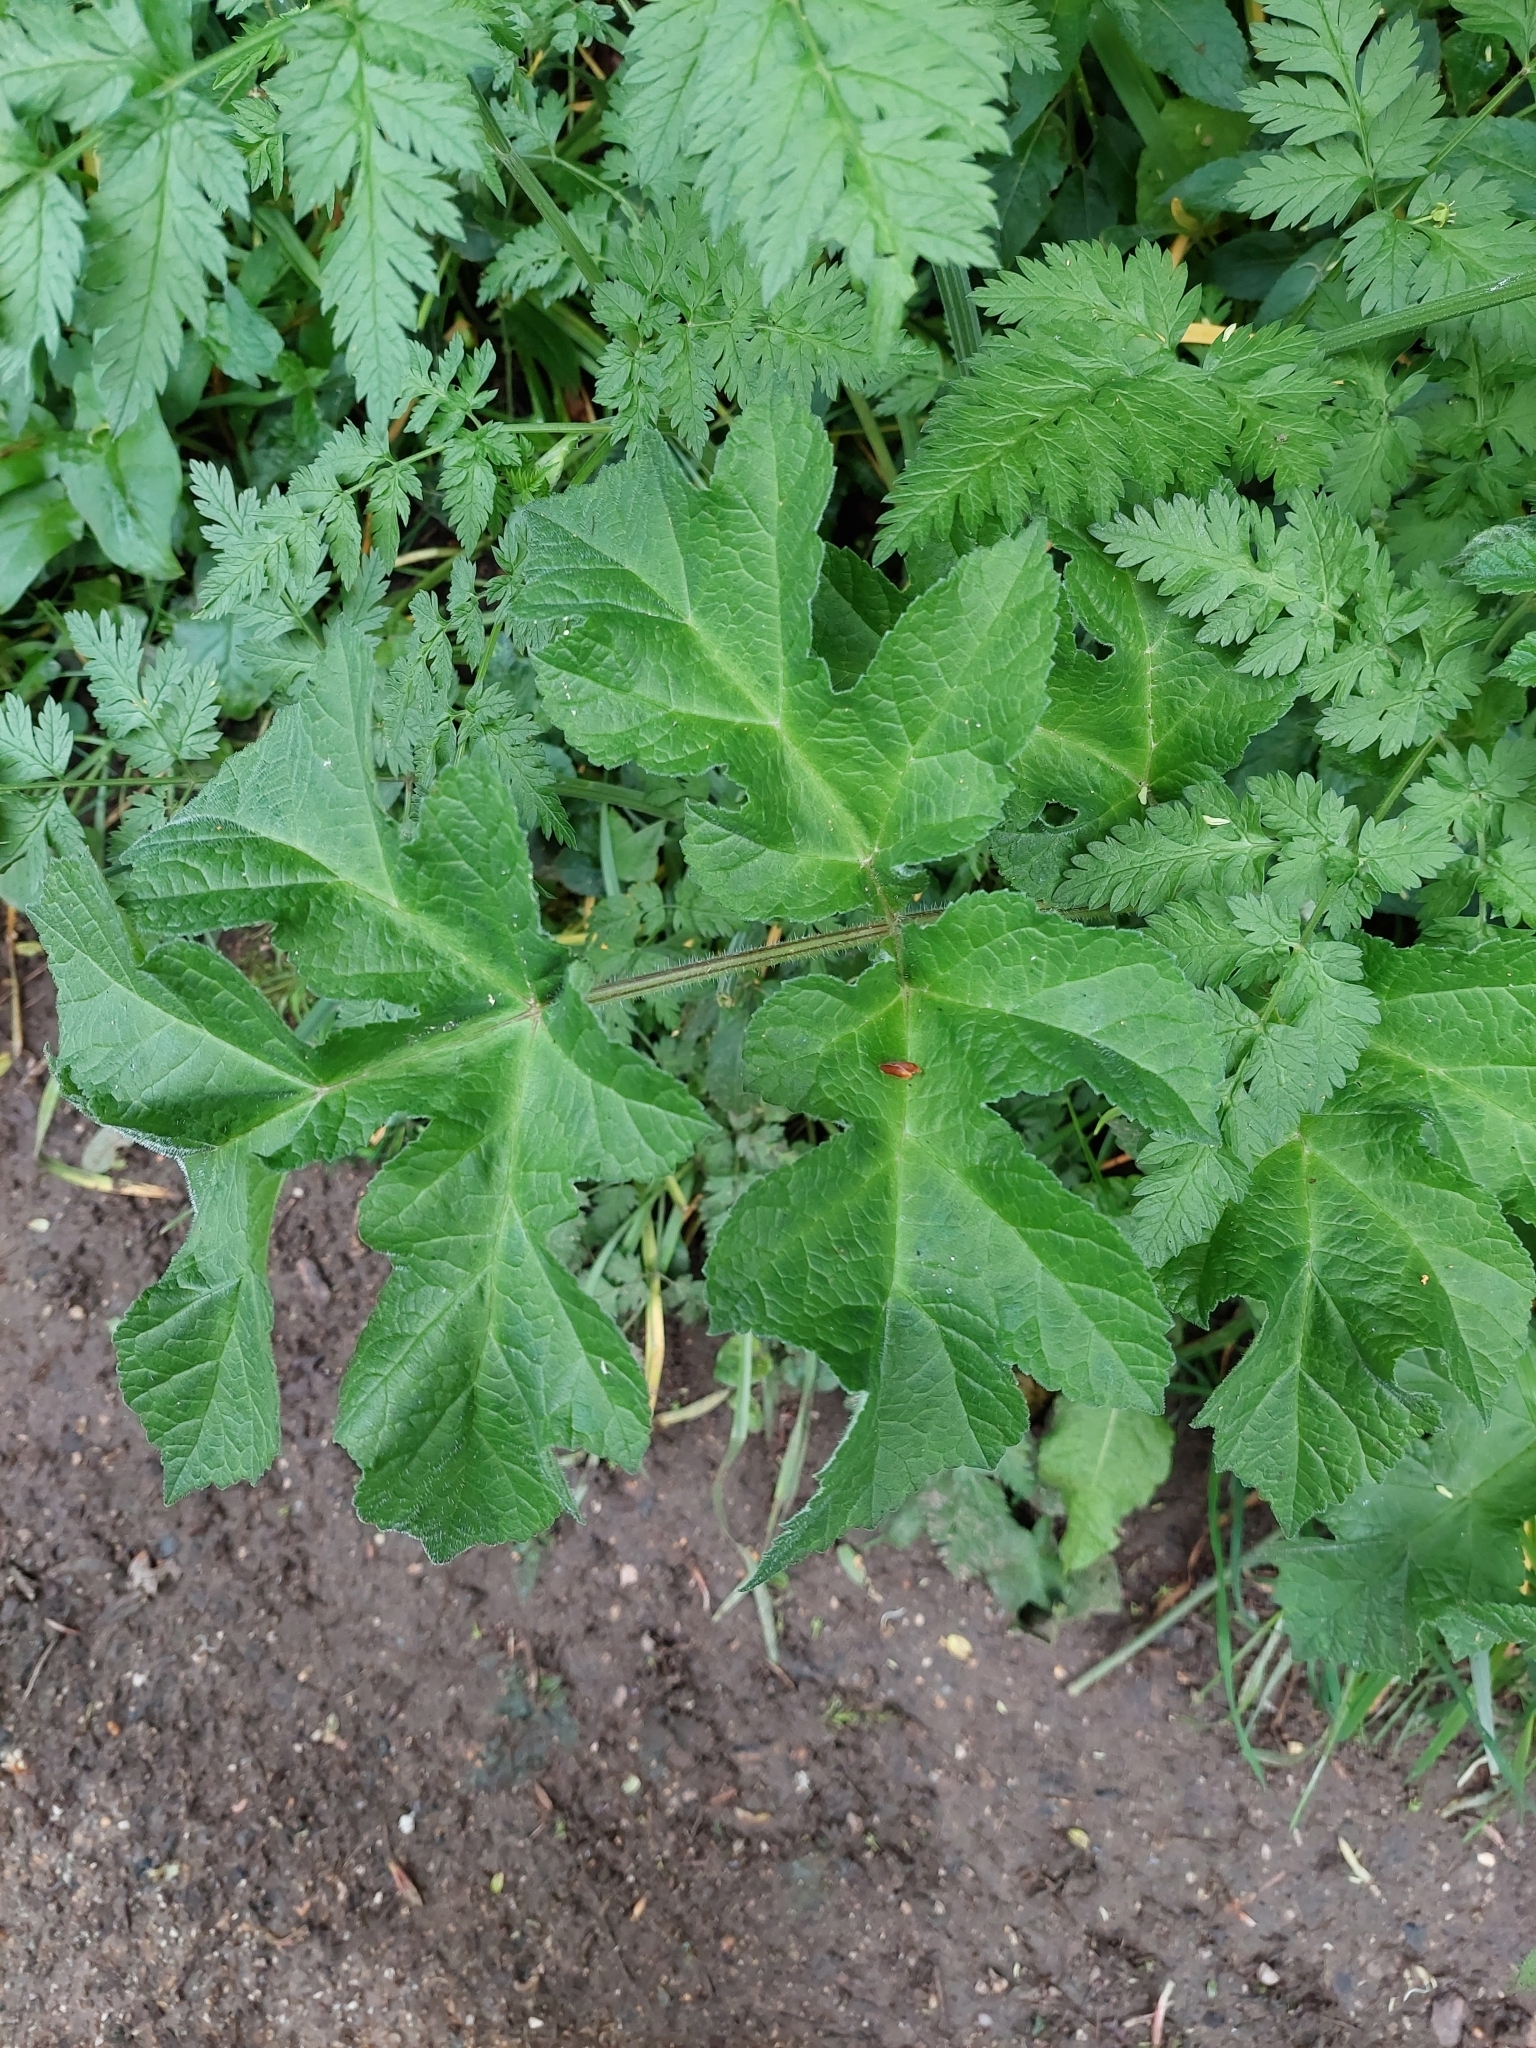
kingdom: Plantae
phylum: Tracheophyta
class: Magnoliopsida
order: Apiales
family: Apiaceae
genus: Heracleum
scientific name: Heracleum sphondylium
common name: Hogweed
